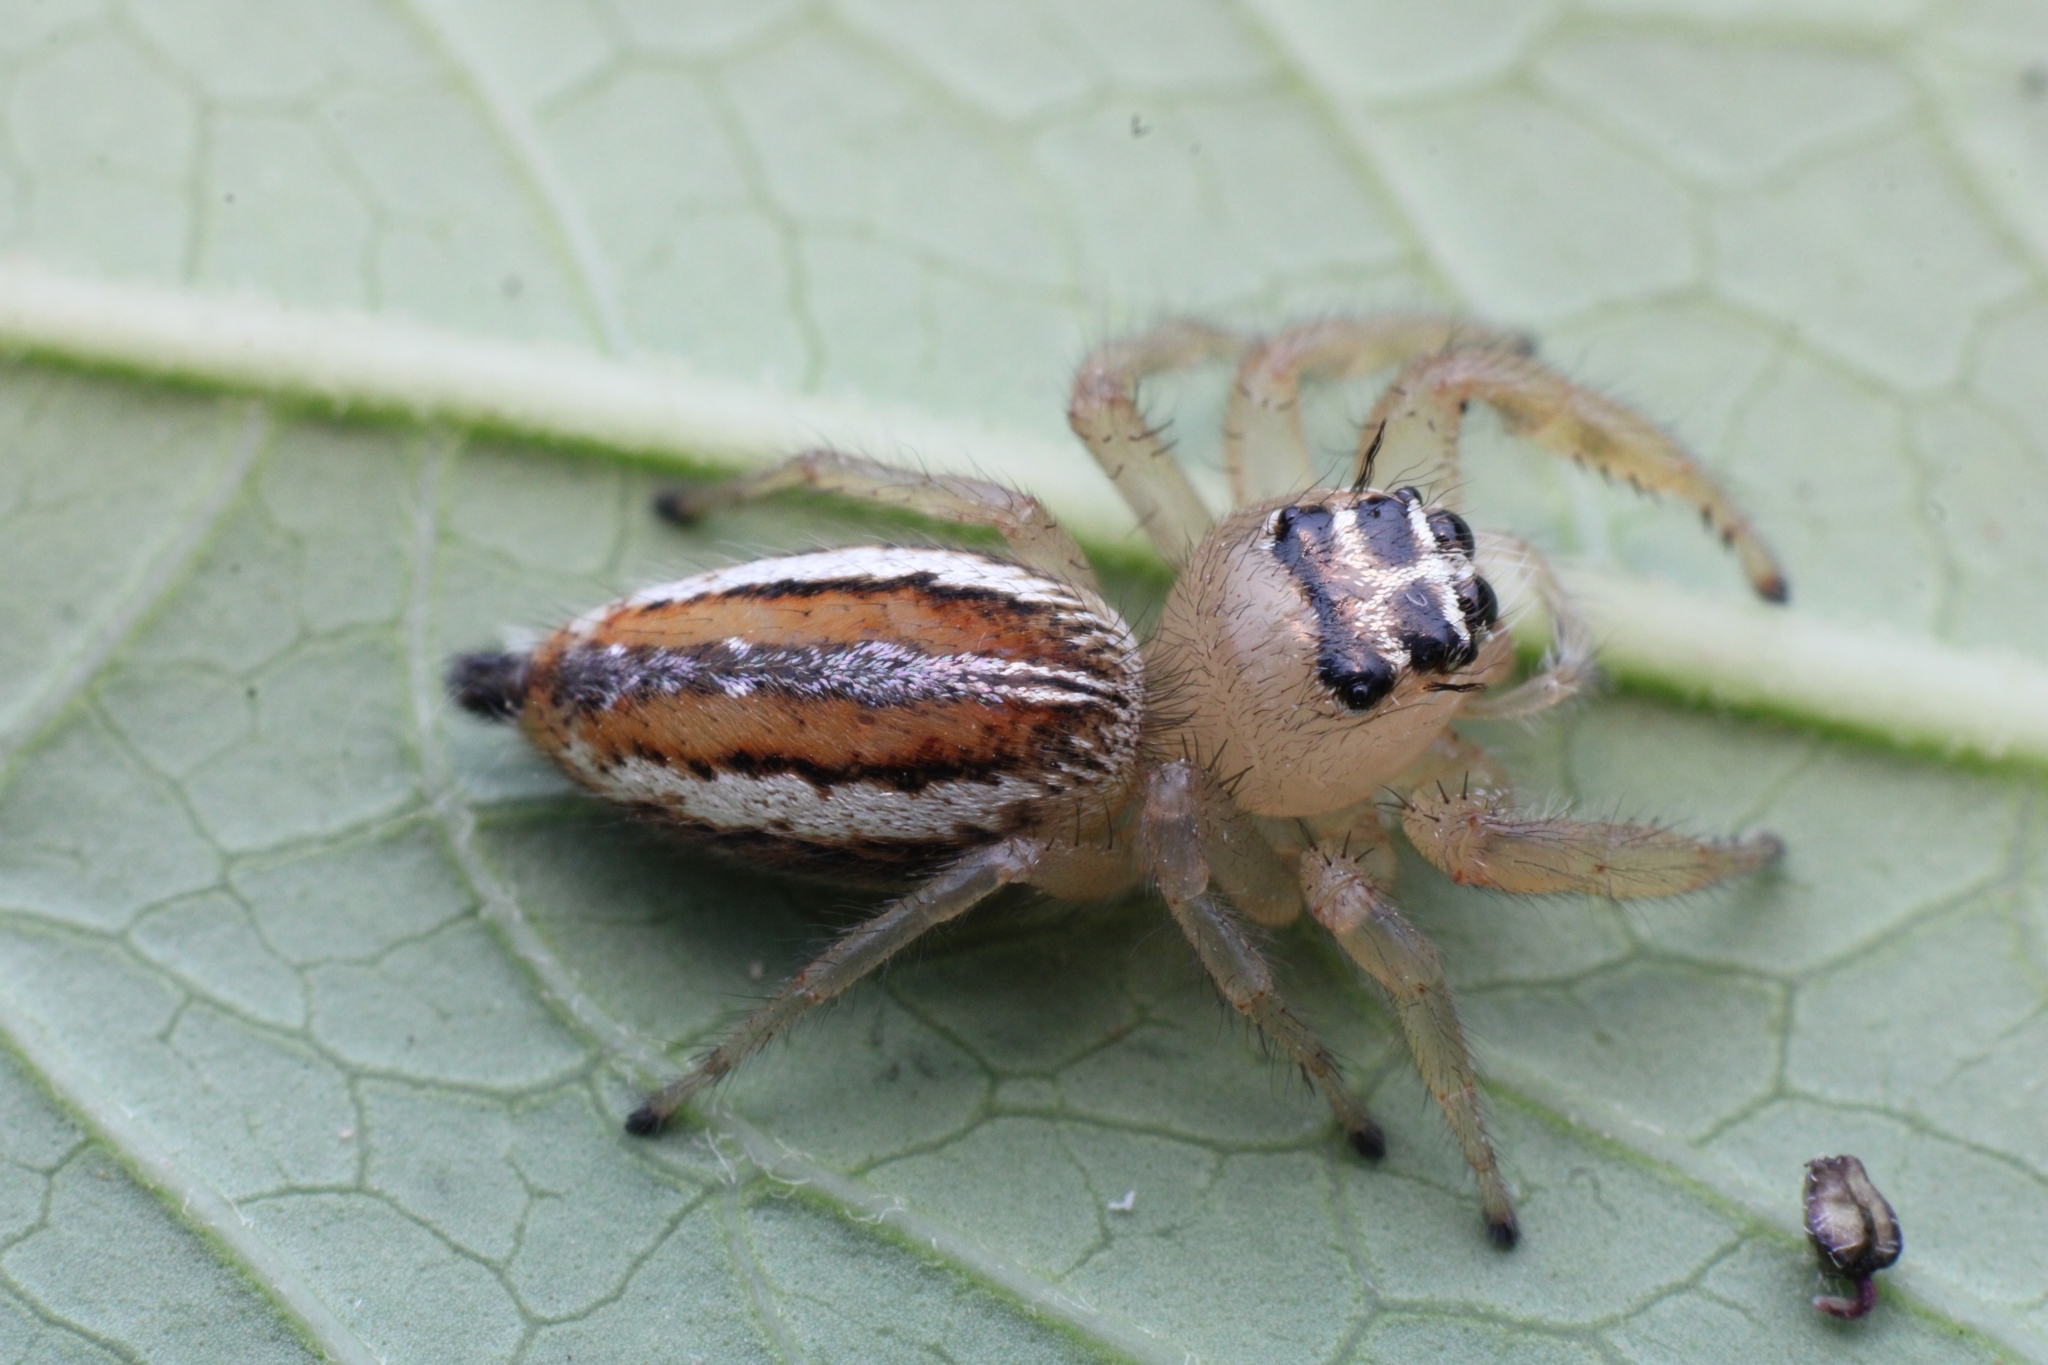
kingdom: Animalia
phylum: Arthropoda
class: Arachnida
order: Araneae
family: Salticidae
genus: Thyene
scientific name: Thyene inflata
